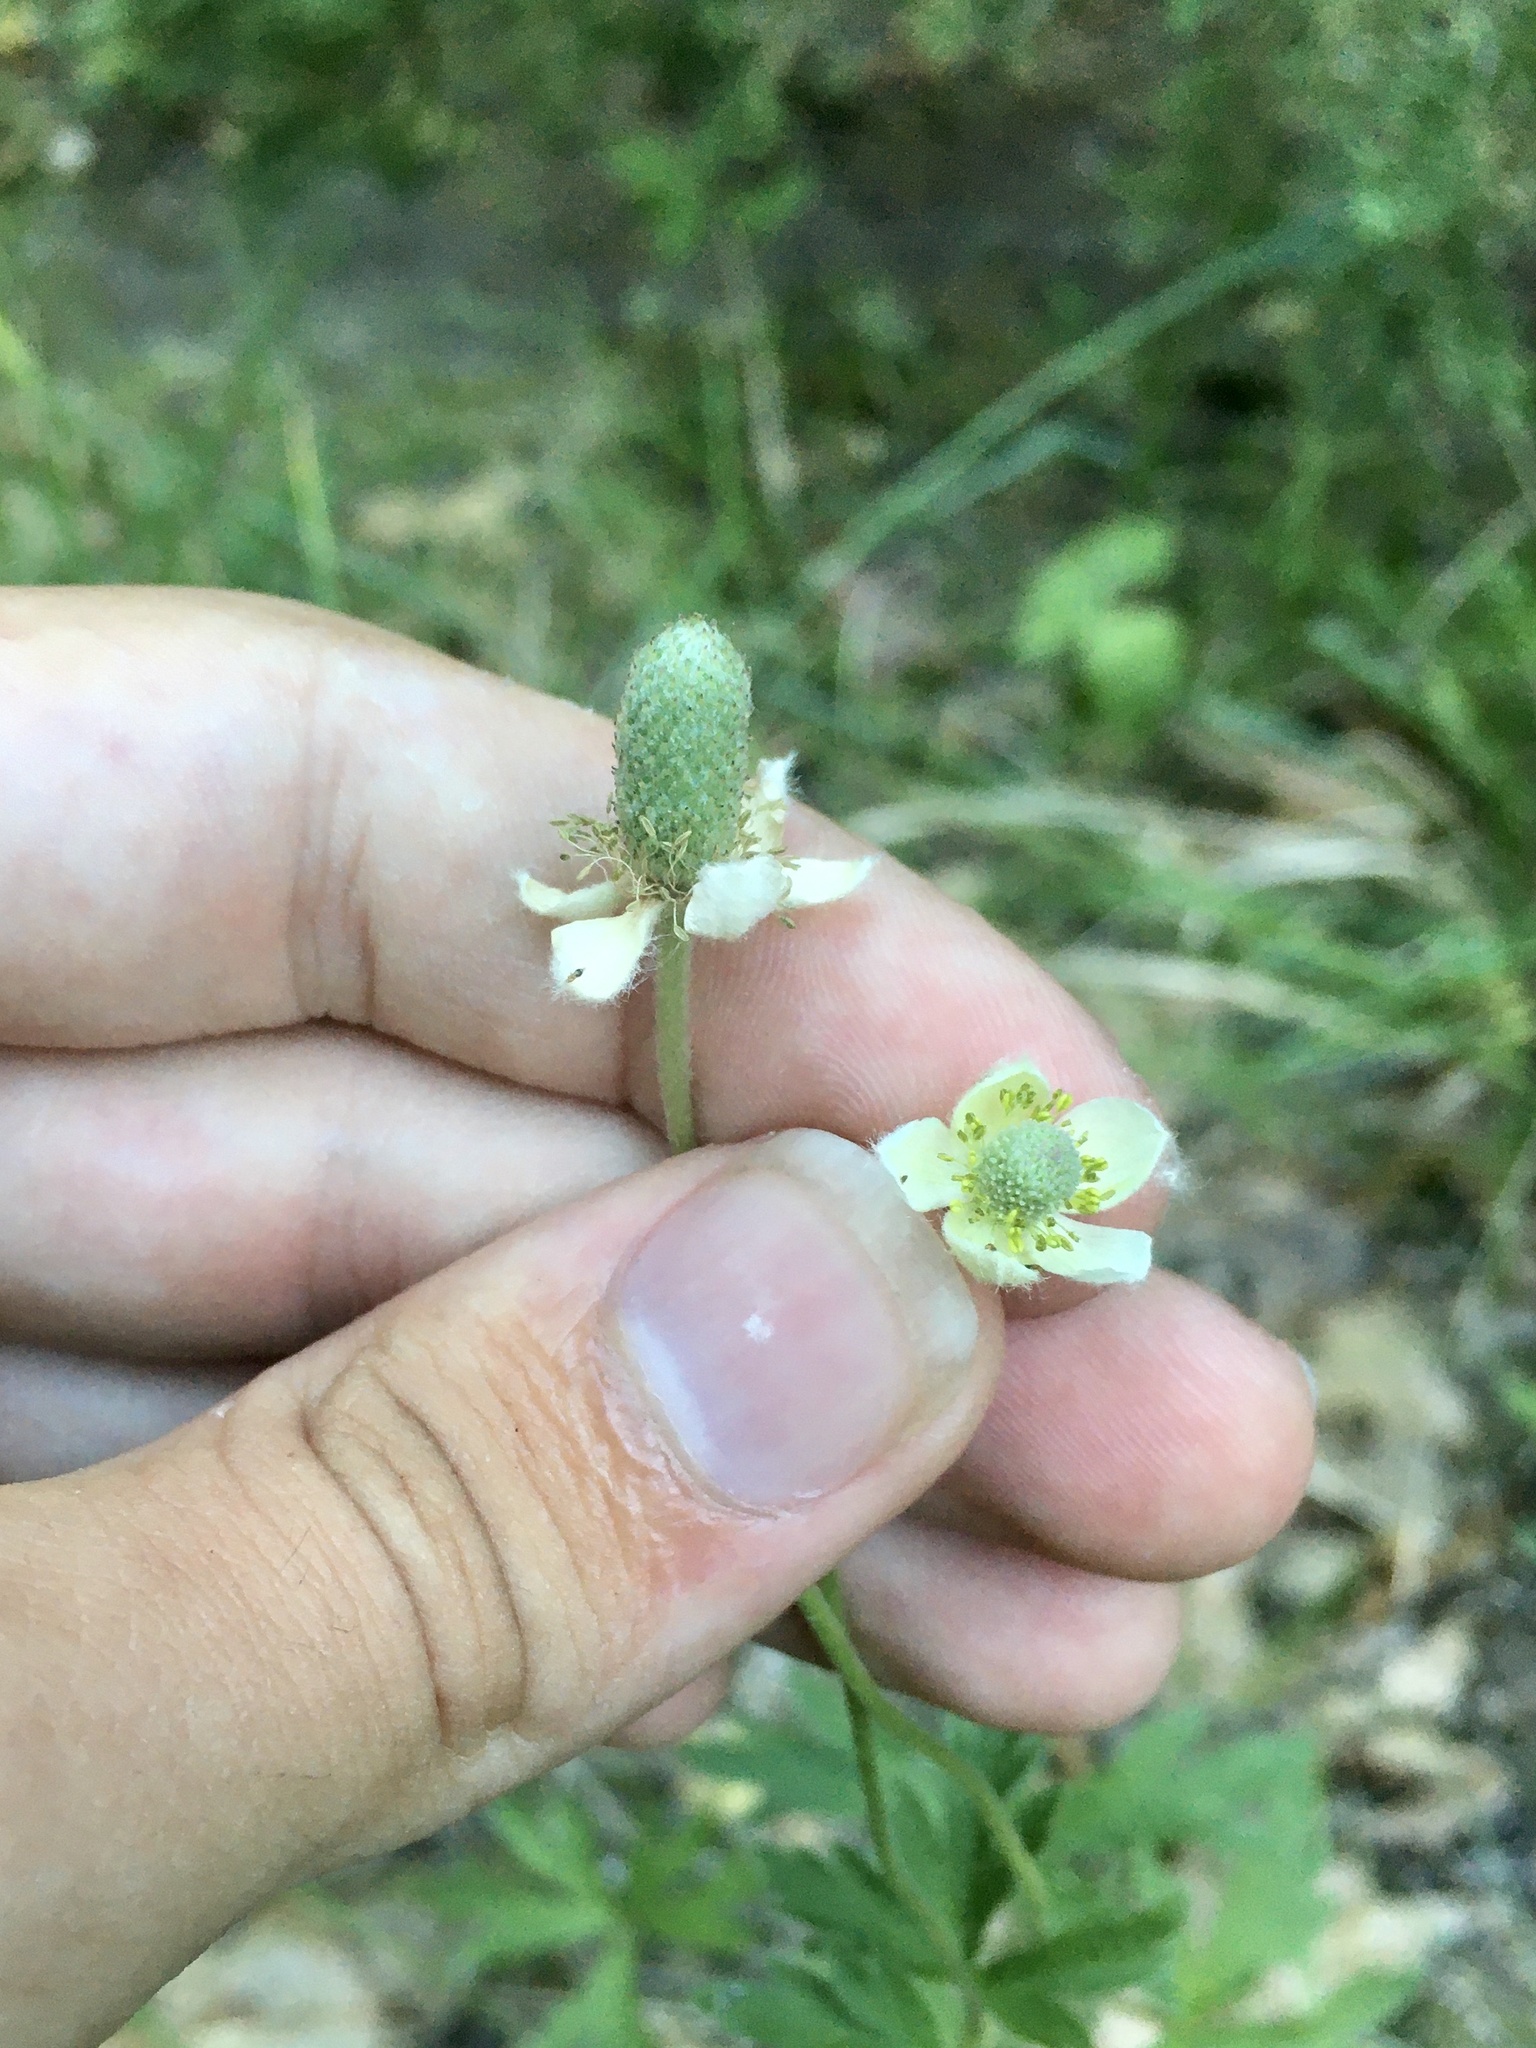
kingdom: Plantae
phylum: Tracheophyta
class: Magnoliopsida
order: Ranunculales
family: Ranunculaceae
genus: Anemone
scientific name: Anemone cylindrica
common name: Candle anemone
